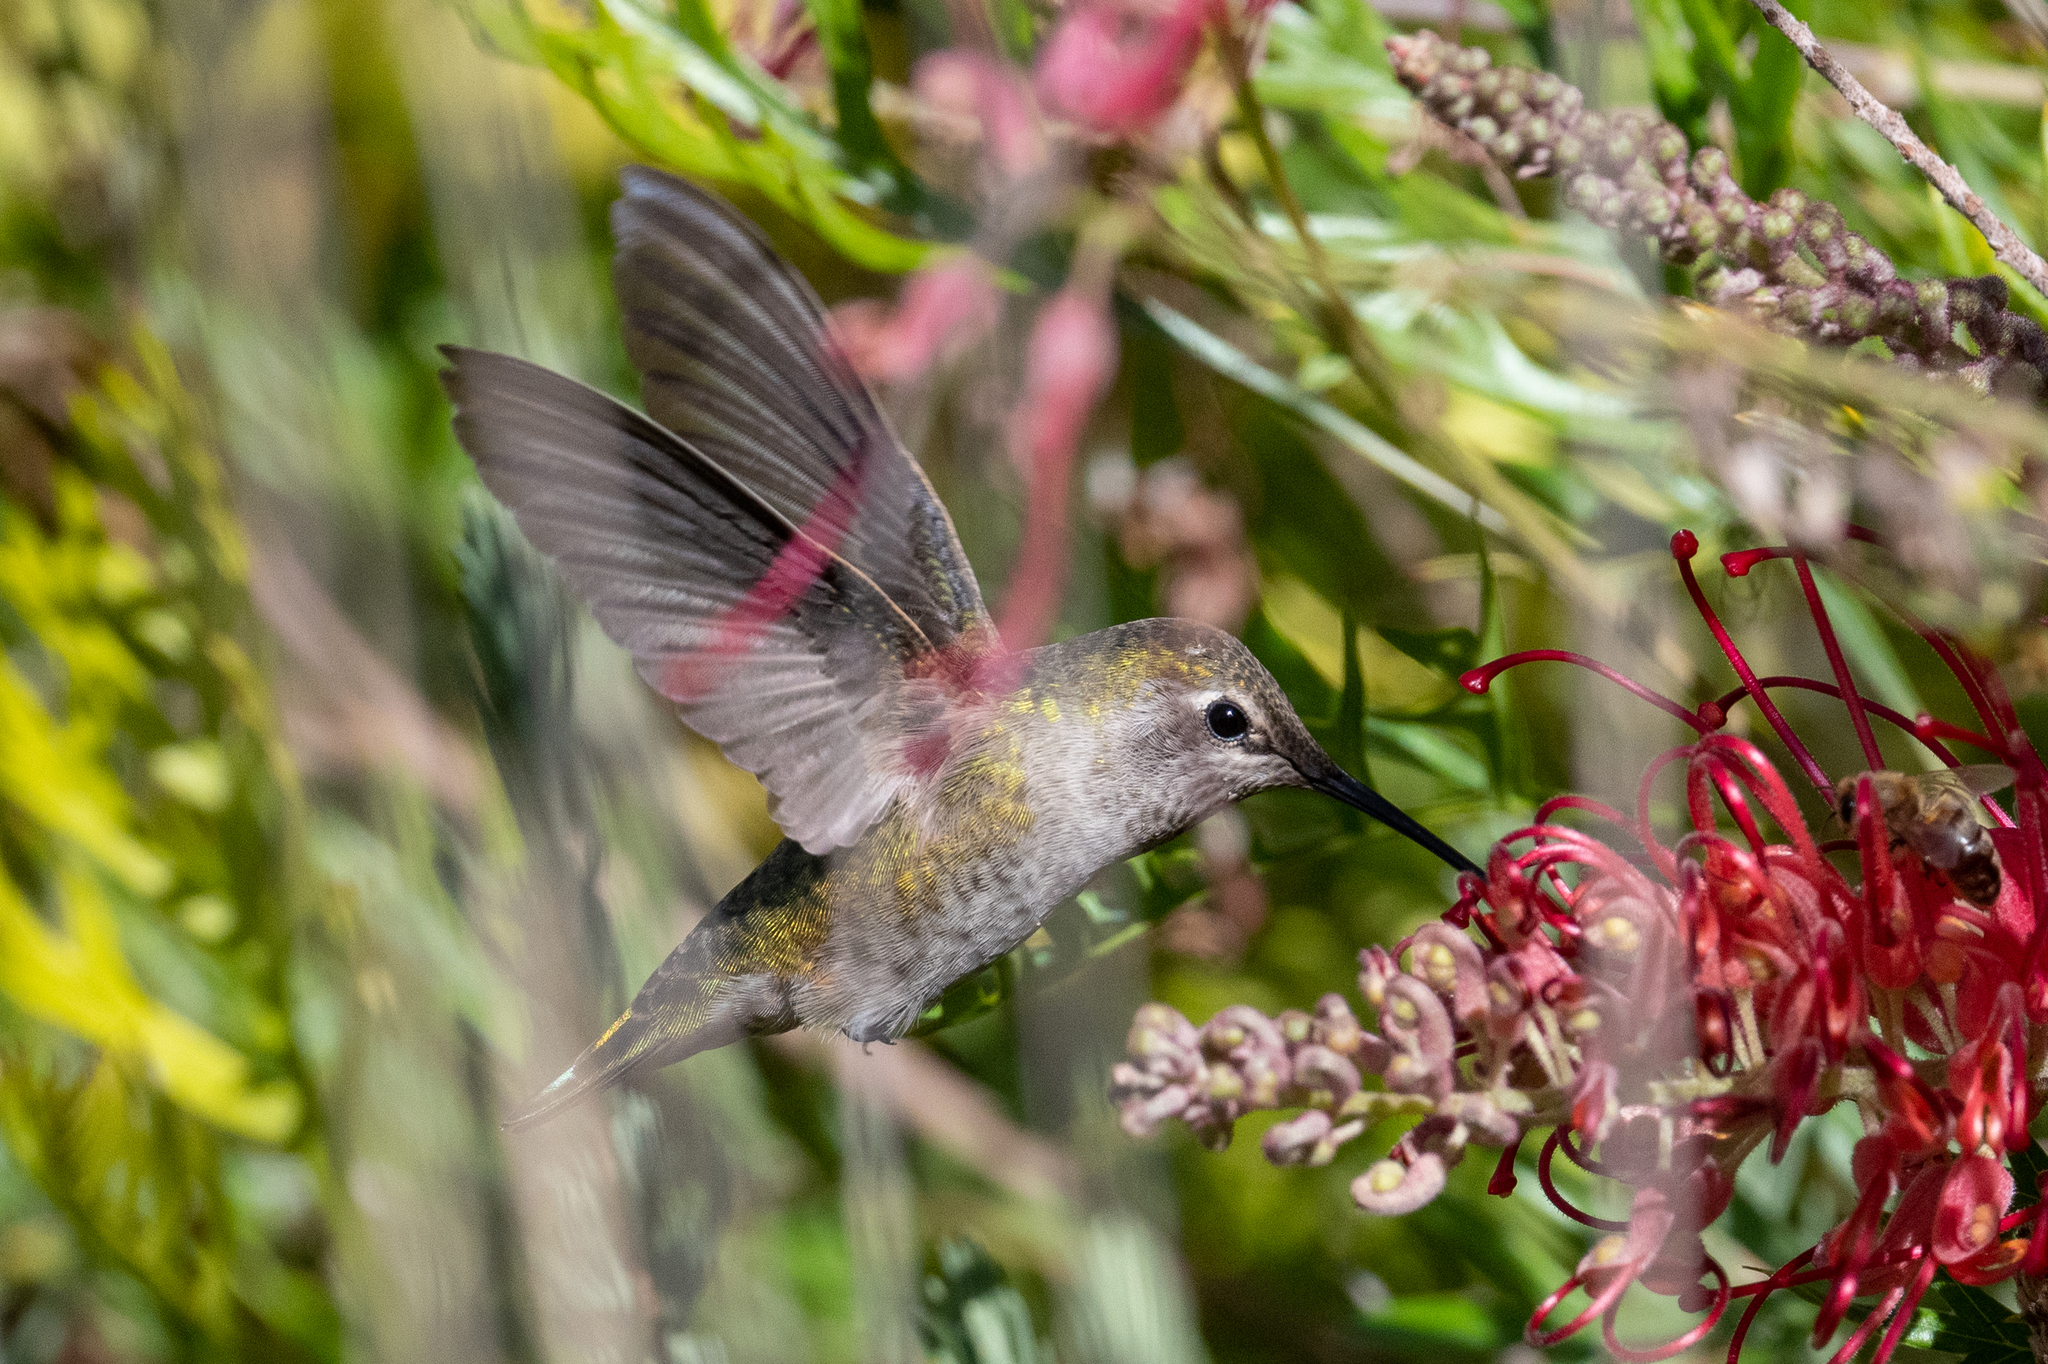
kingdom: Animalia
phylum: Chordata
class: Aves
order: Apodiformes
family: Trochilidae
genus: Calypte
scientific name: Calypte anna
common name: Anna's hummingbird
